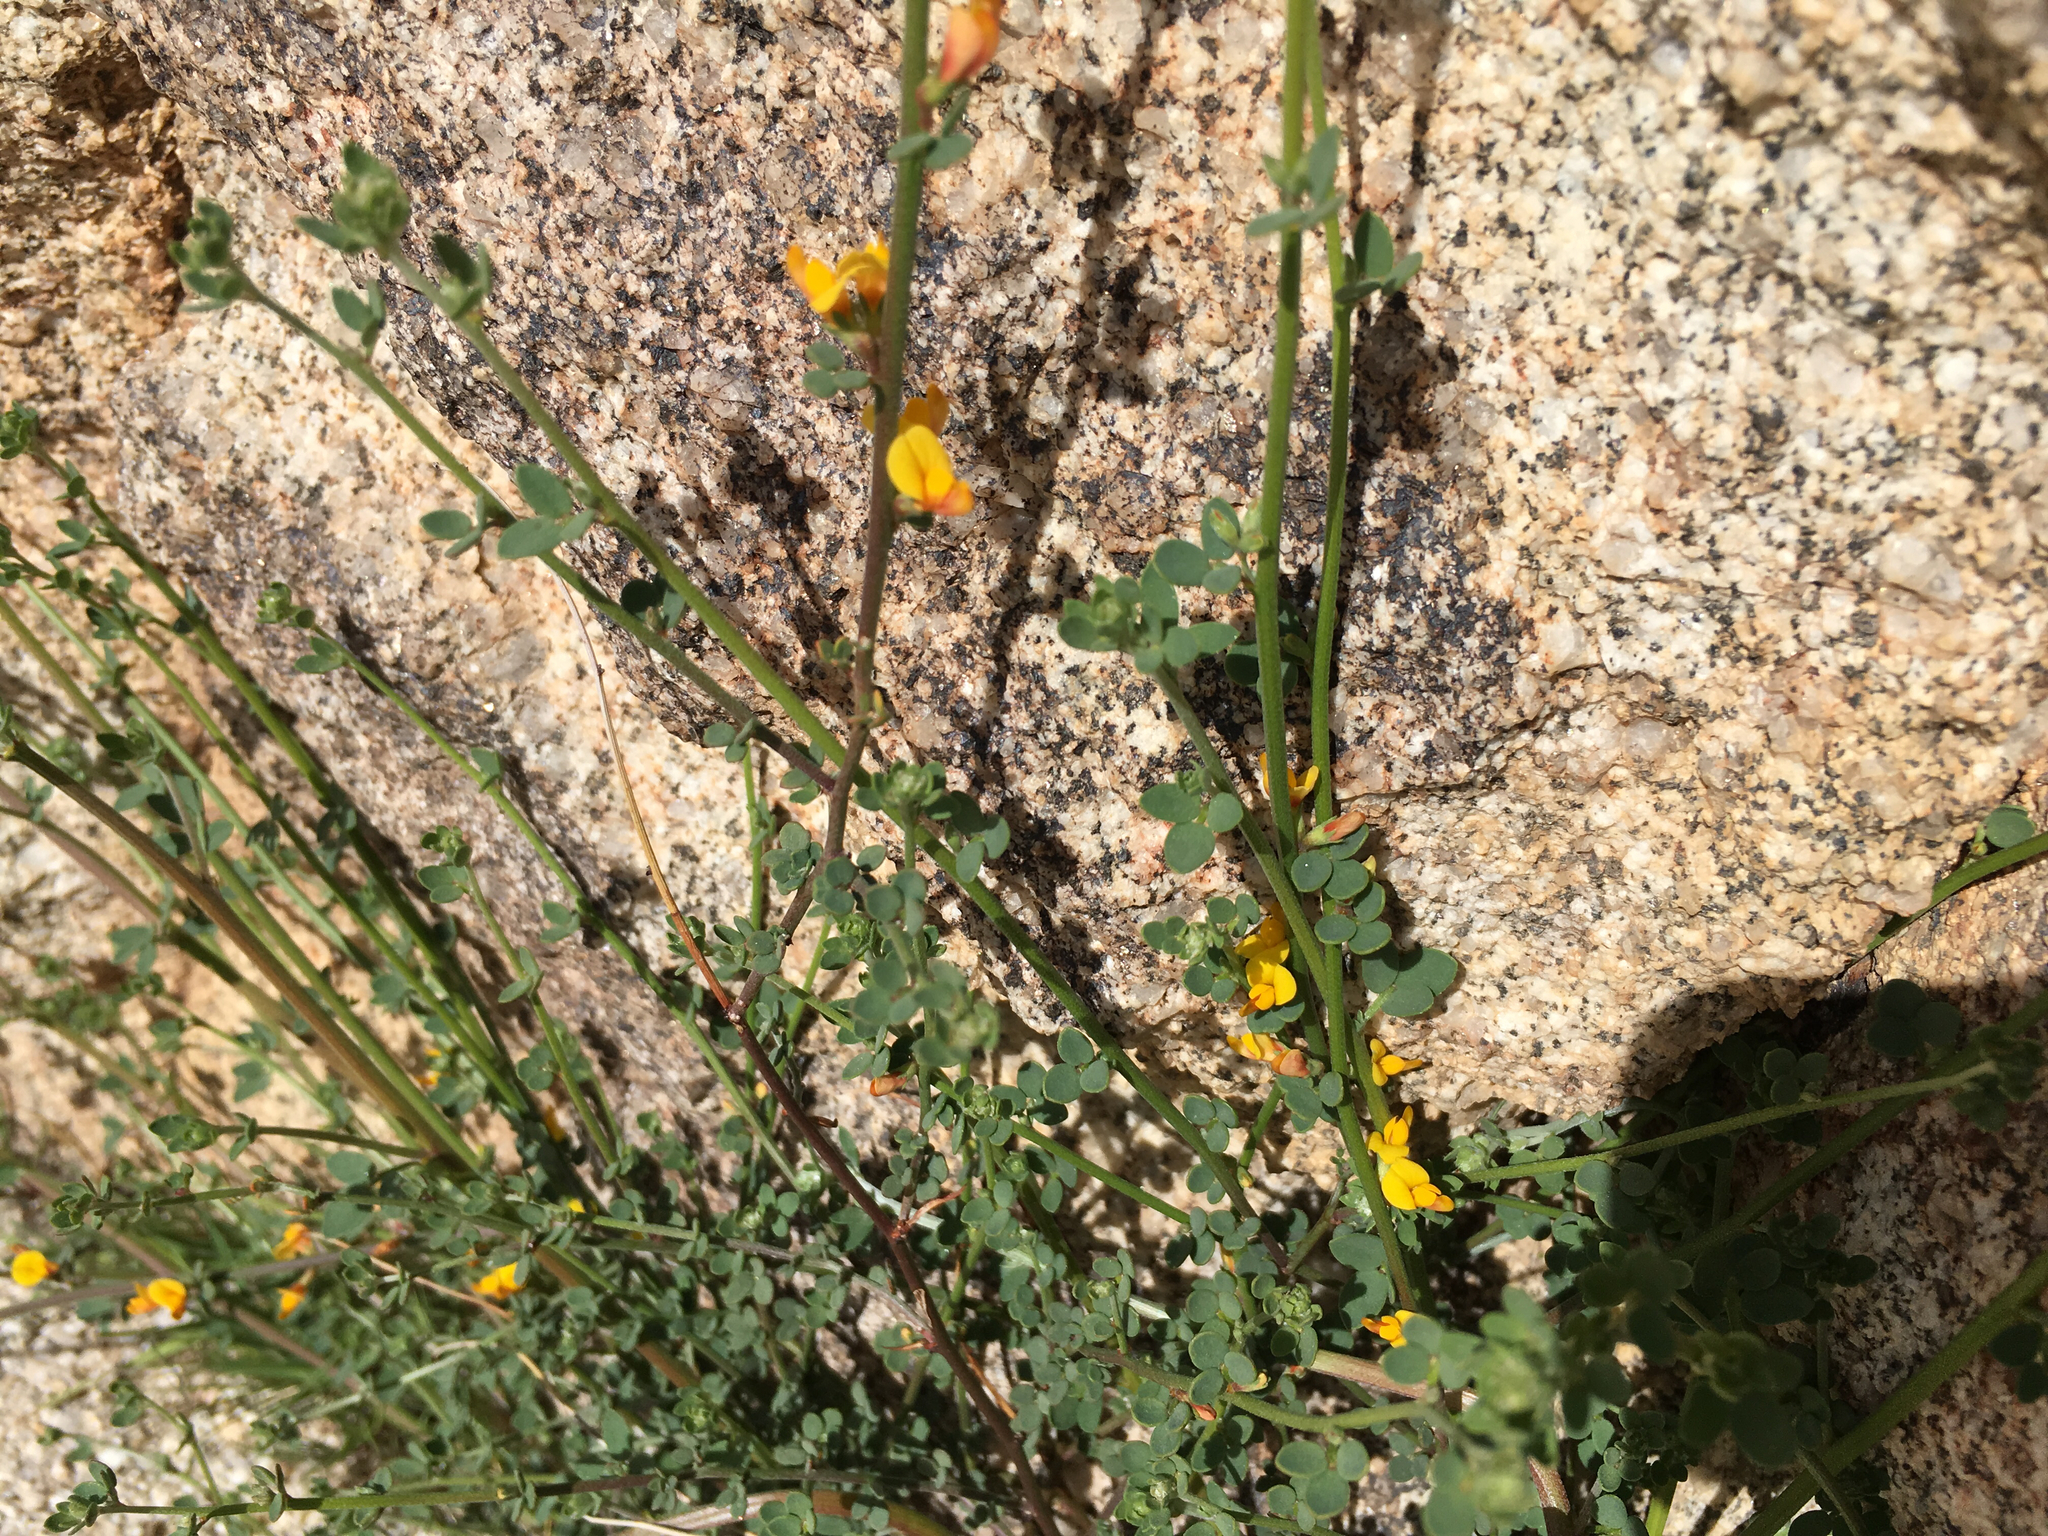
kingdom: Plantae
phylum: Tracheophyta
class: Magnoliopsida
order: Fabales
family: Fabaceae
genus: Acmispon
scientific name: Acmispon glaber
